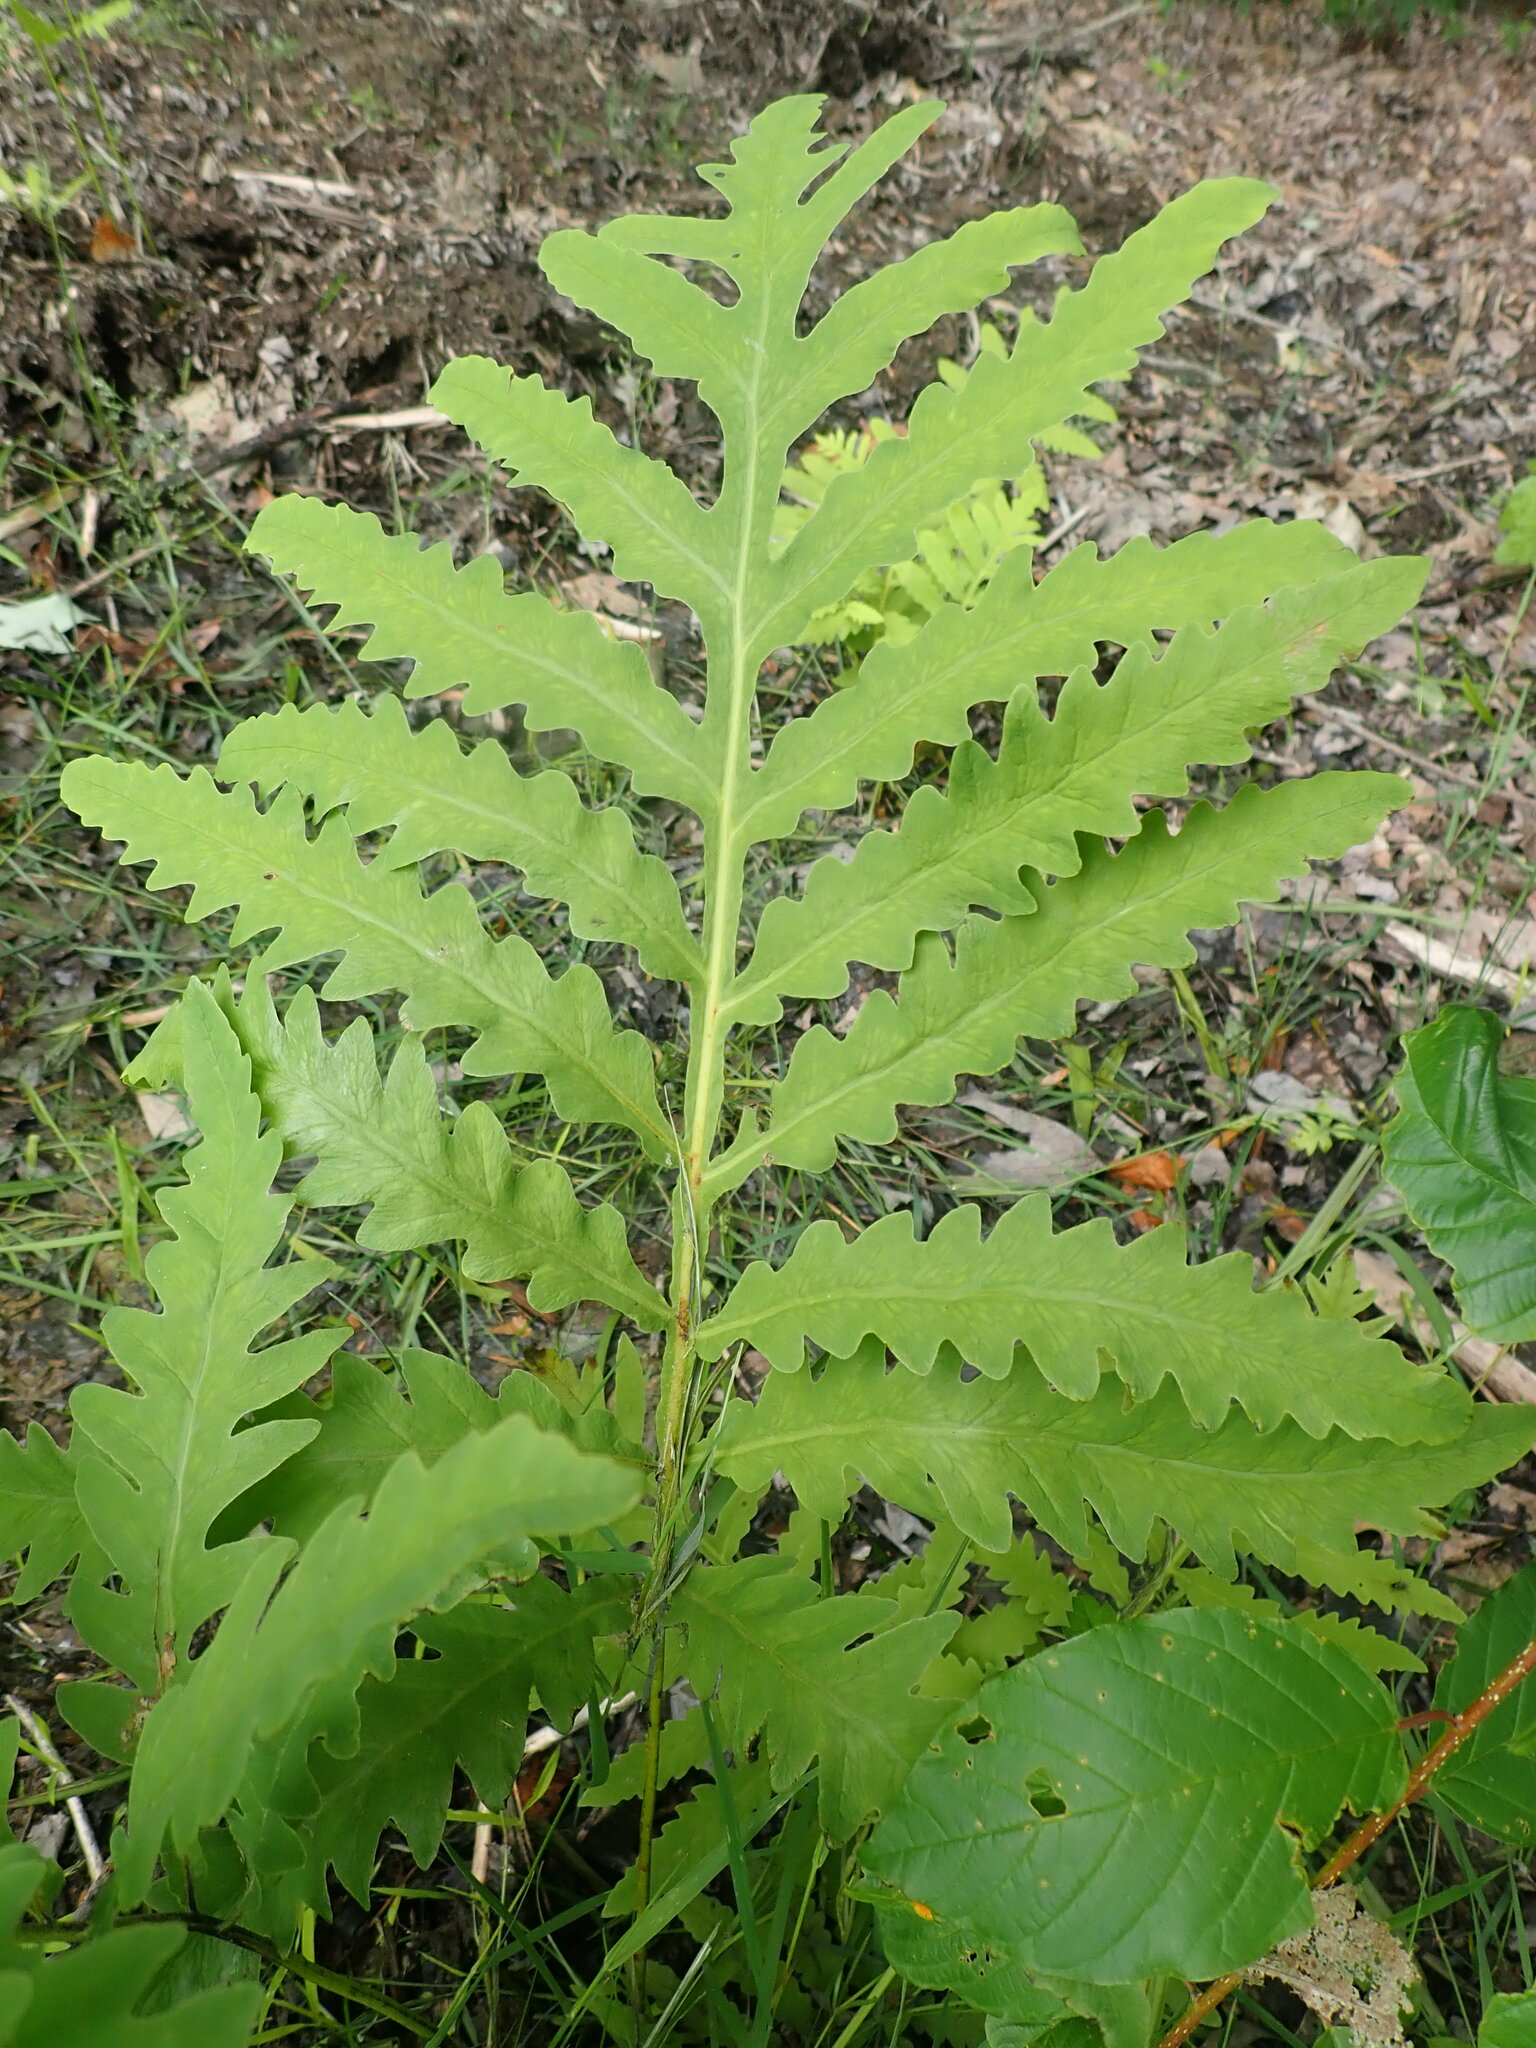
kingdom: Plantae
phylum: Tracheophyta
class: Polypodiopsida
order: Polypodiales
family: Onocleaceae
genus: Onoclea
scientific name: Onoclea sensibilis
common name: Sensitive fern
